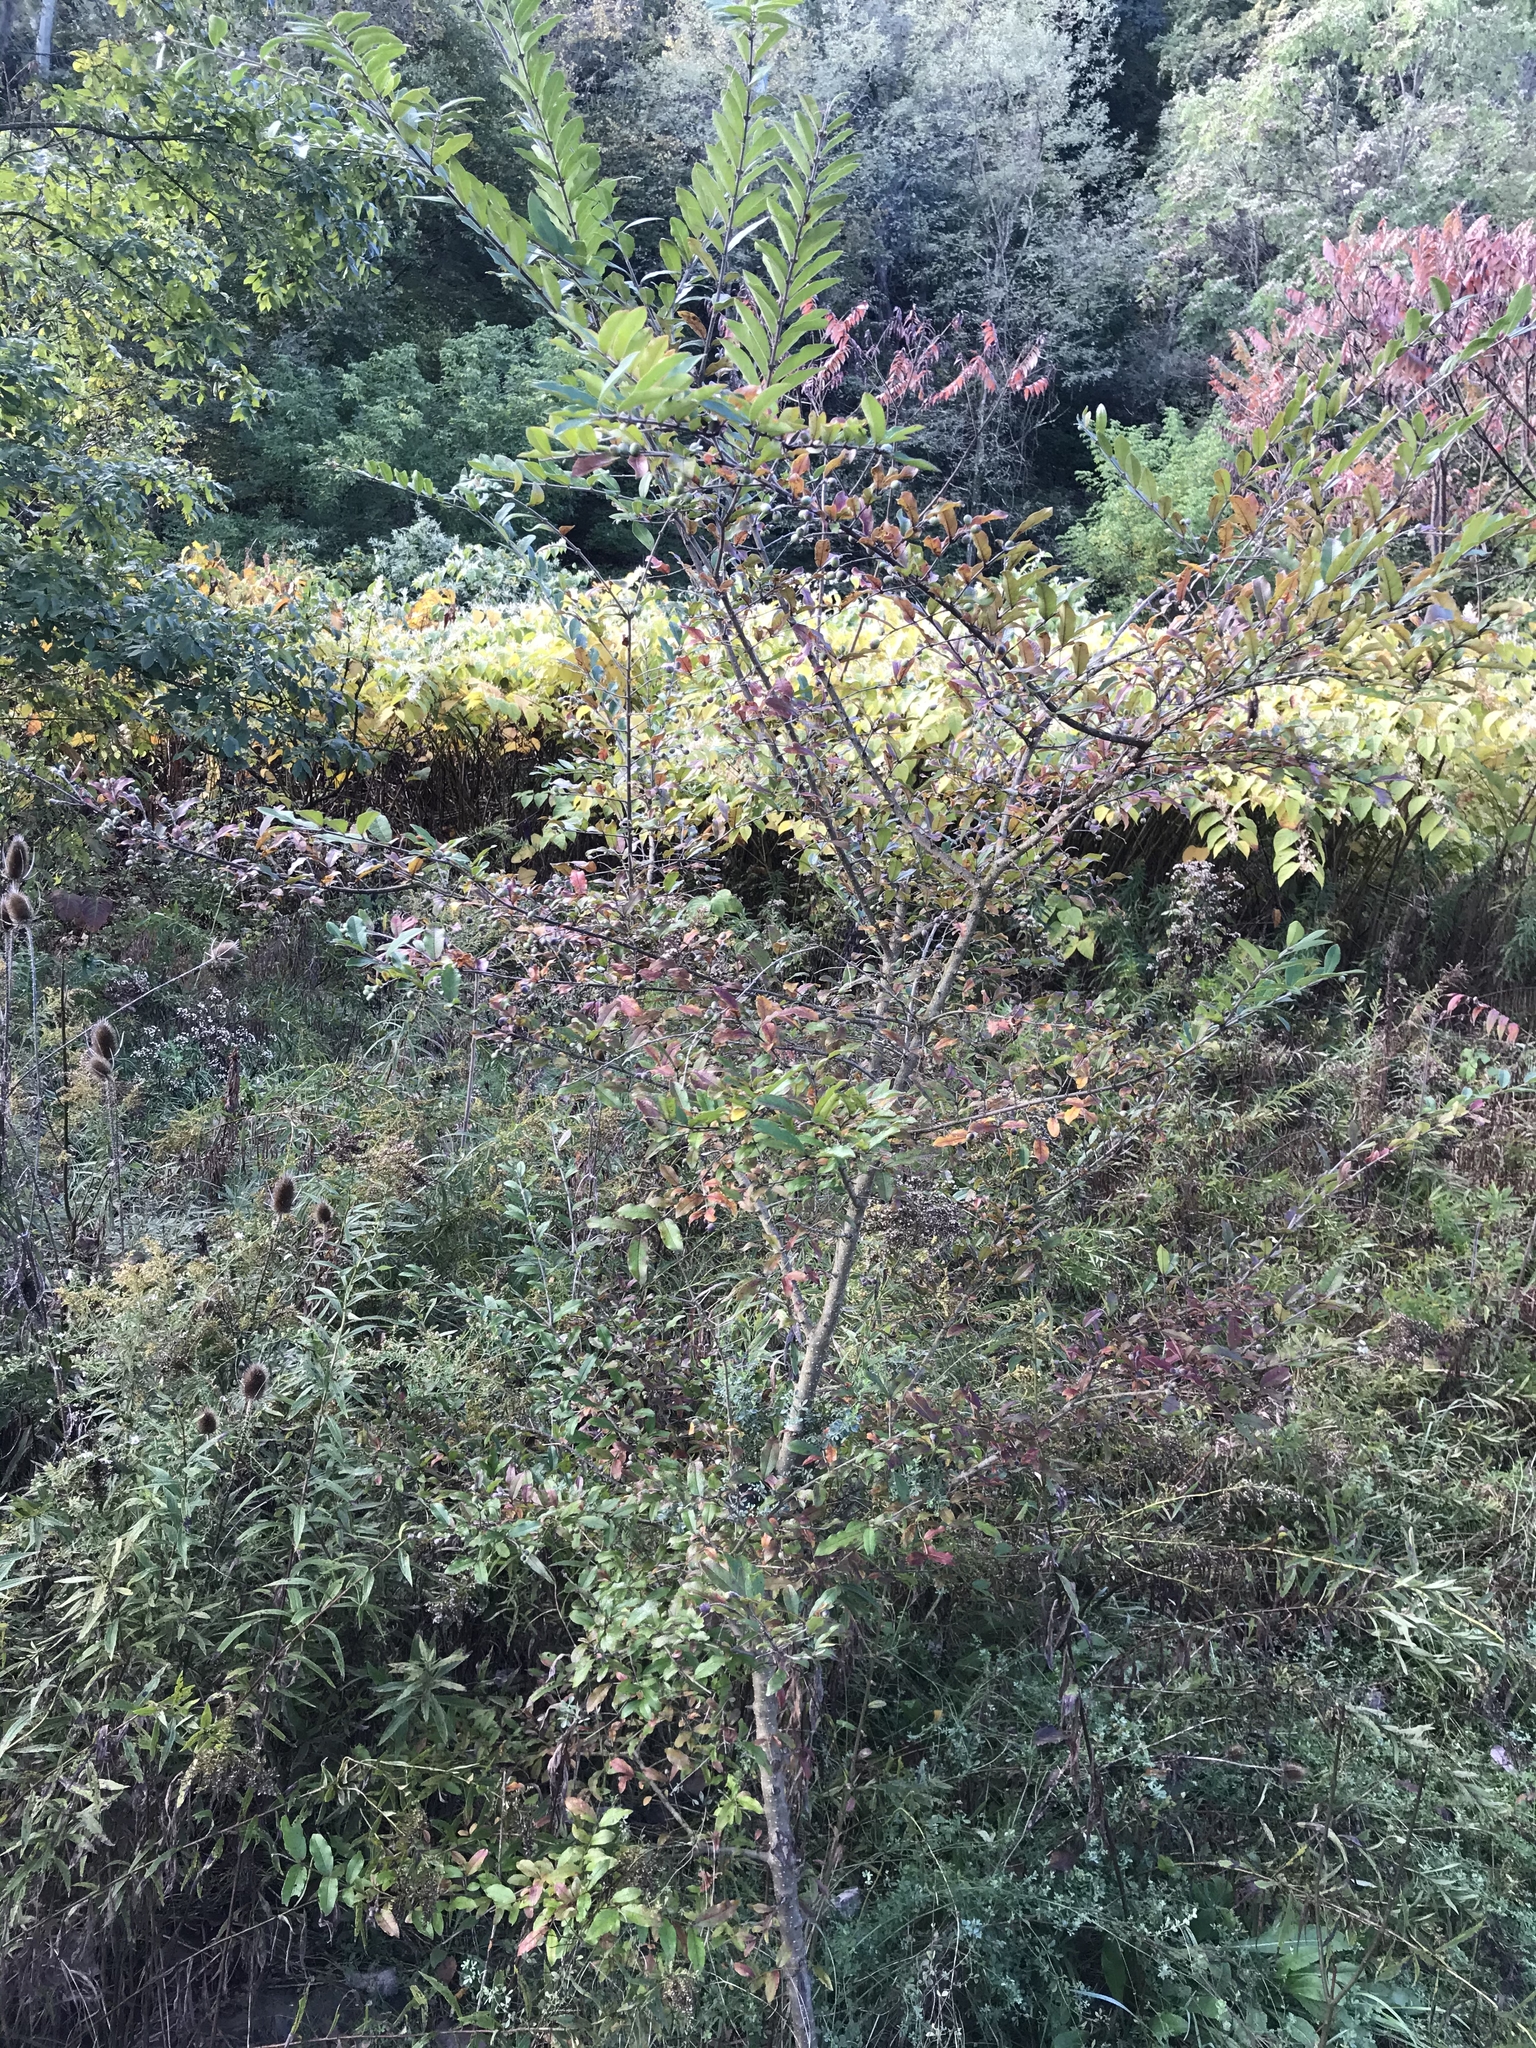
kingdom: Plantae
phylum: Tracheophyta
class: Magnoliopsida
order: Lamiales
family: Oleaceae
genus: Ligustrum
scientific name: Ligustrum obtusifolium
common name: Border privet
